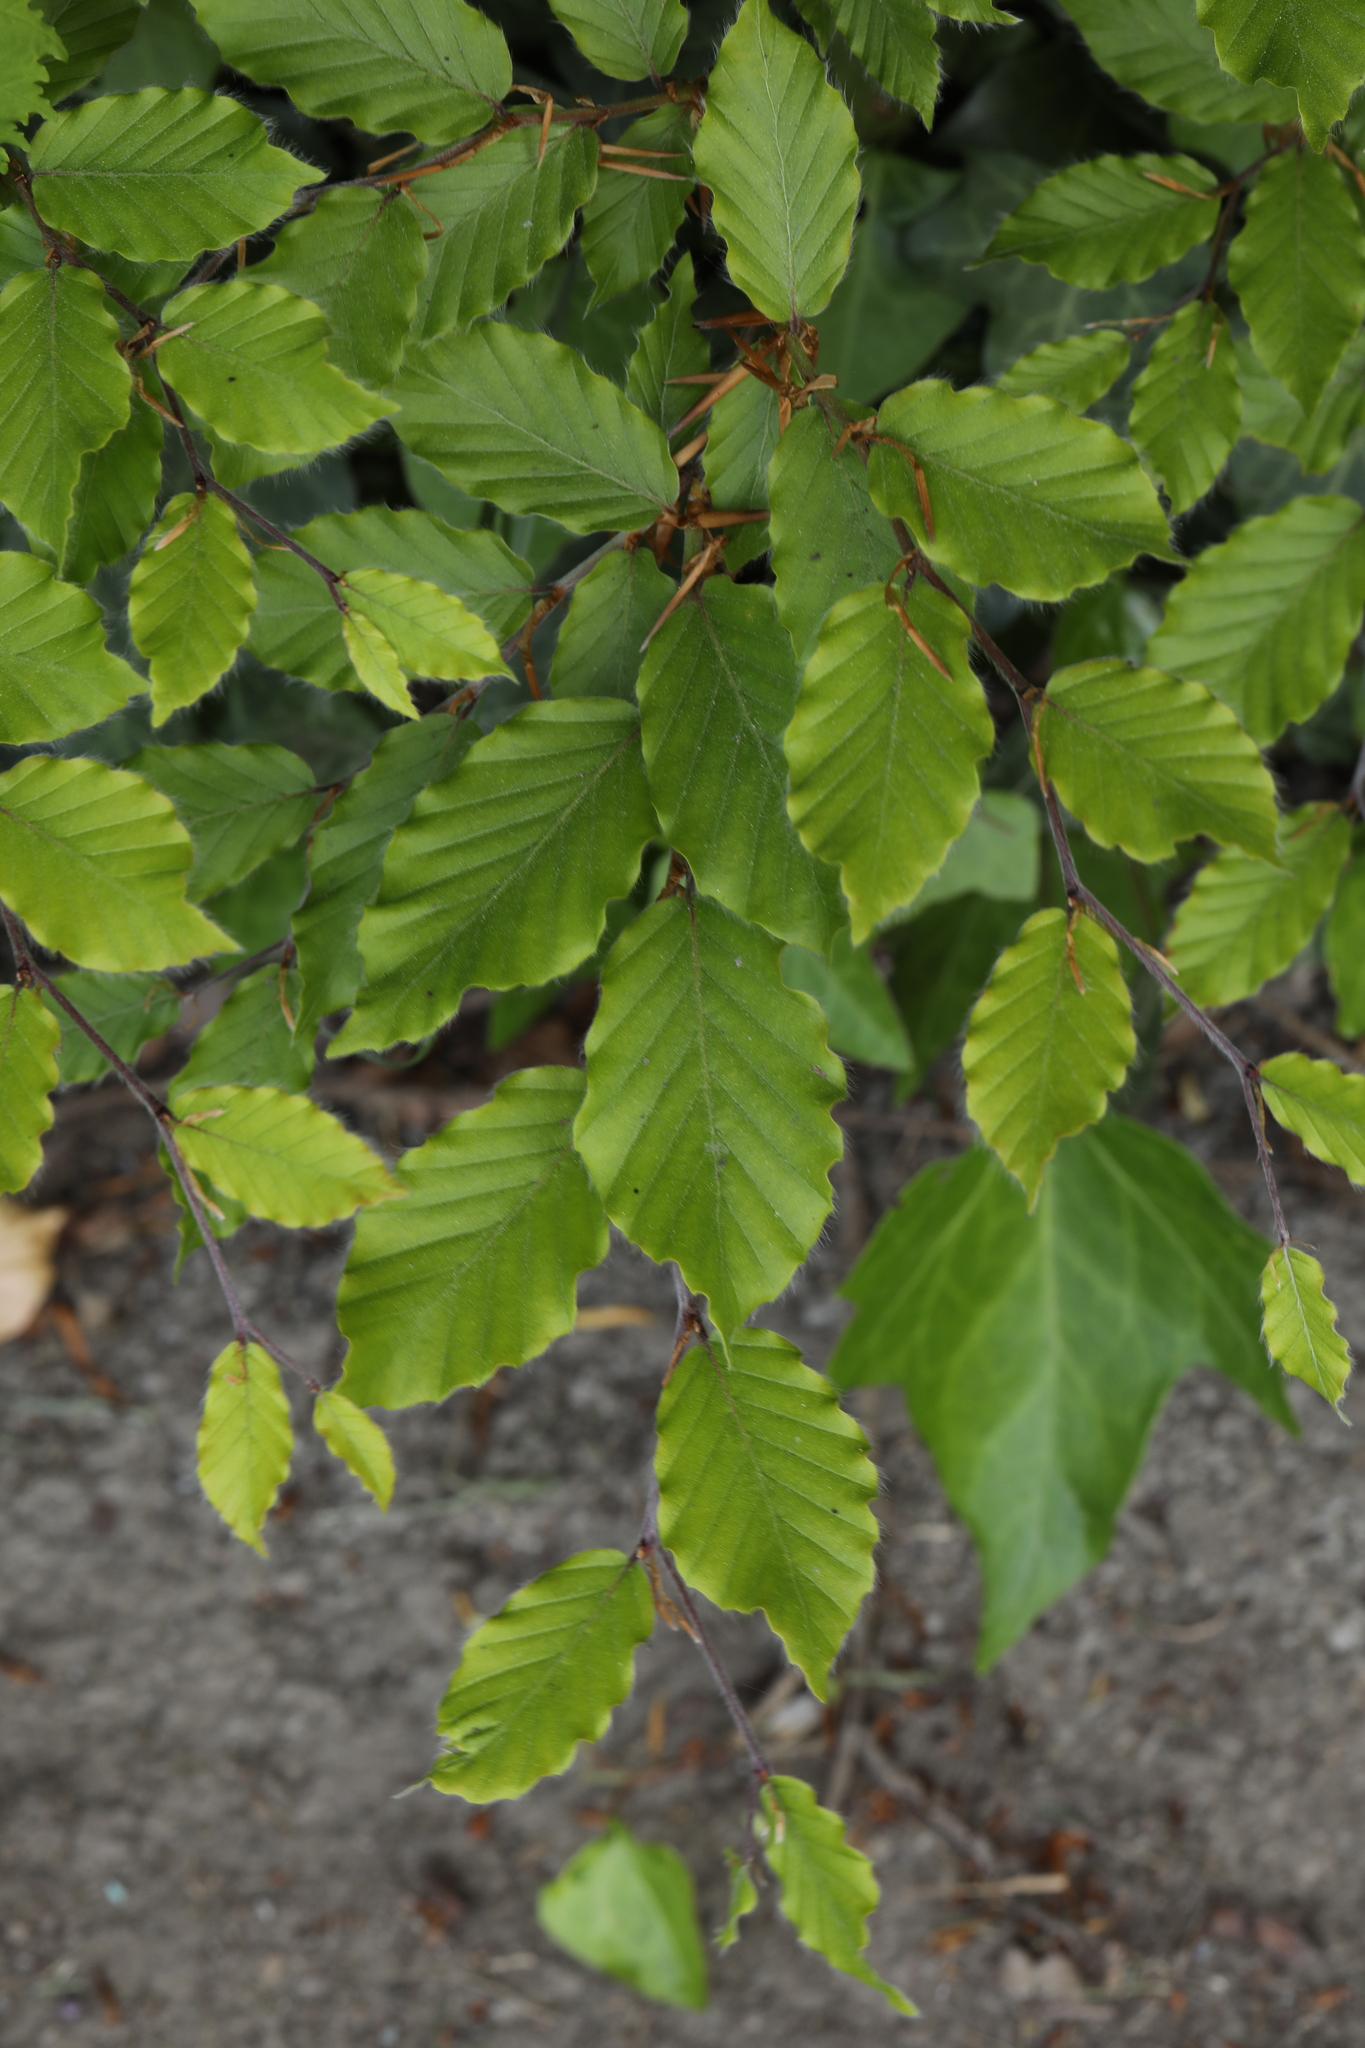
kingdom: Plantae
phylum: Tracheophyta
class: Magnoliopsida
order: Fagales
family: Fagaceae
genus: Fagus
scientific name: Fagus sylvatica
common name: Beech
